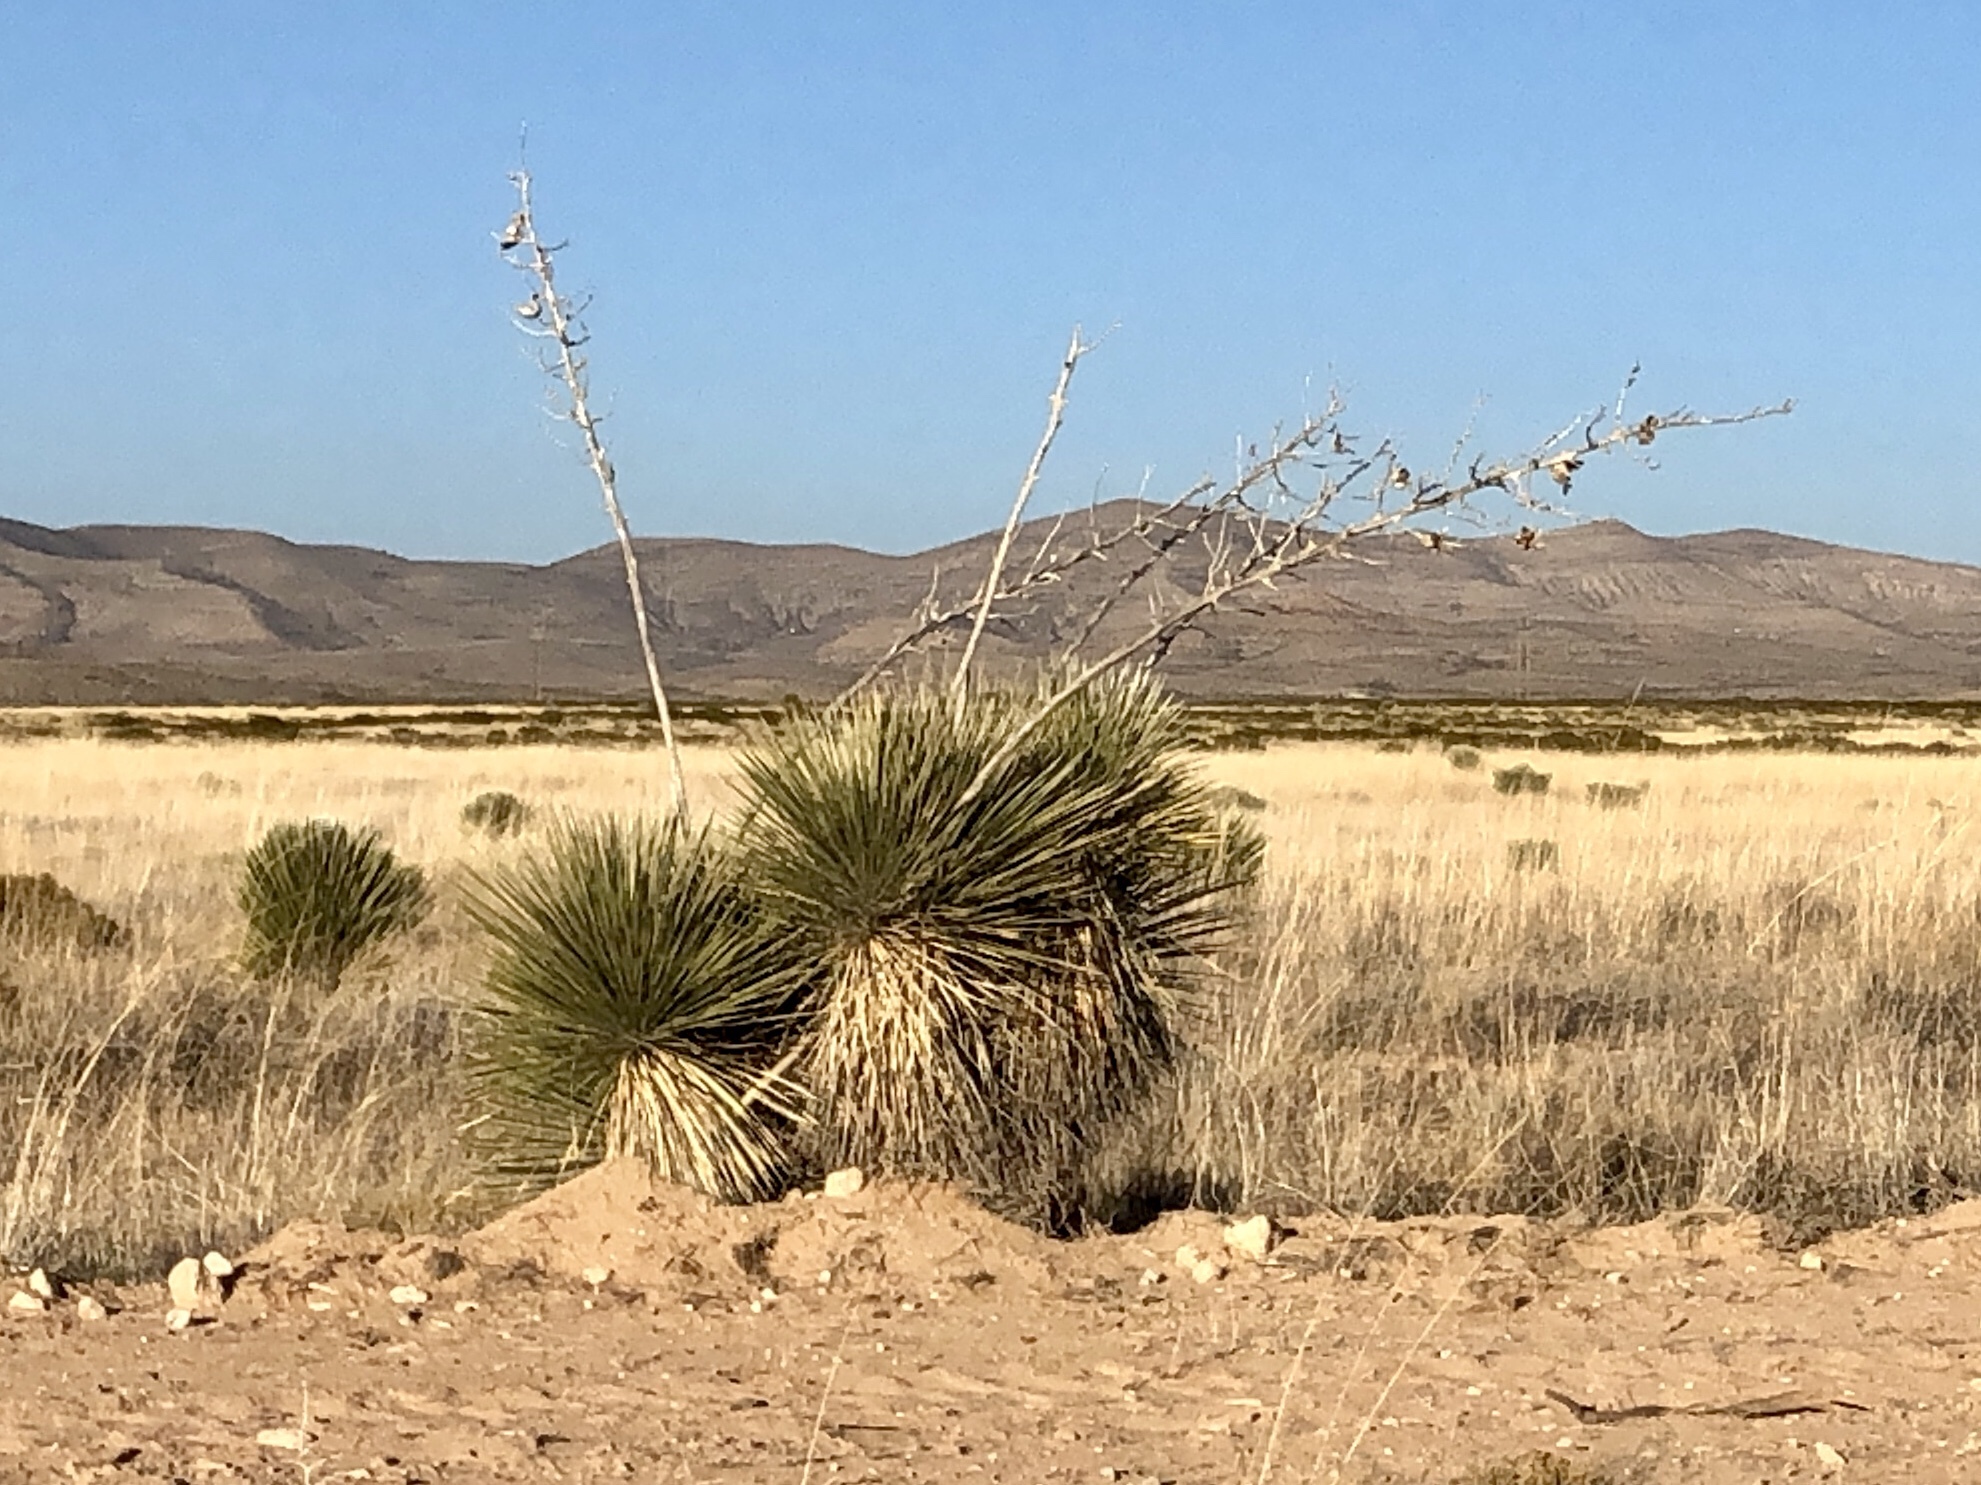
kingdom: Plantae
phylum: Tracheophyta
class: Liliopsida
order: Asparagales
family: Asparagaceae
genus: Yucca
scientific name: Yucca elata
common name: Palmella
